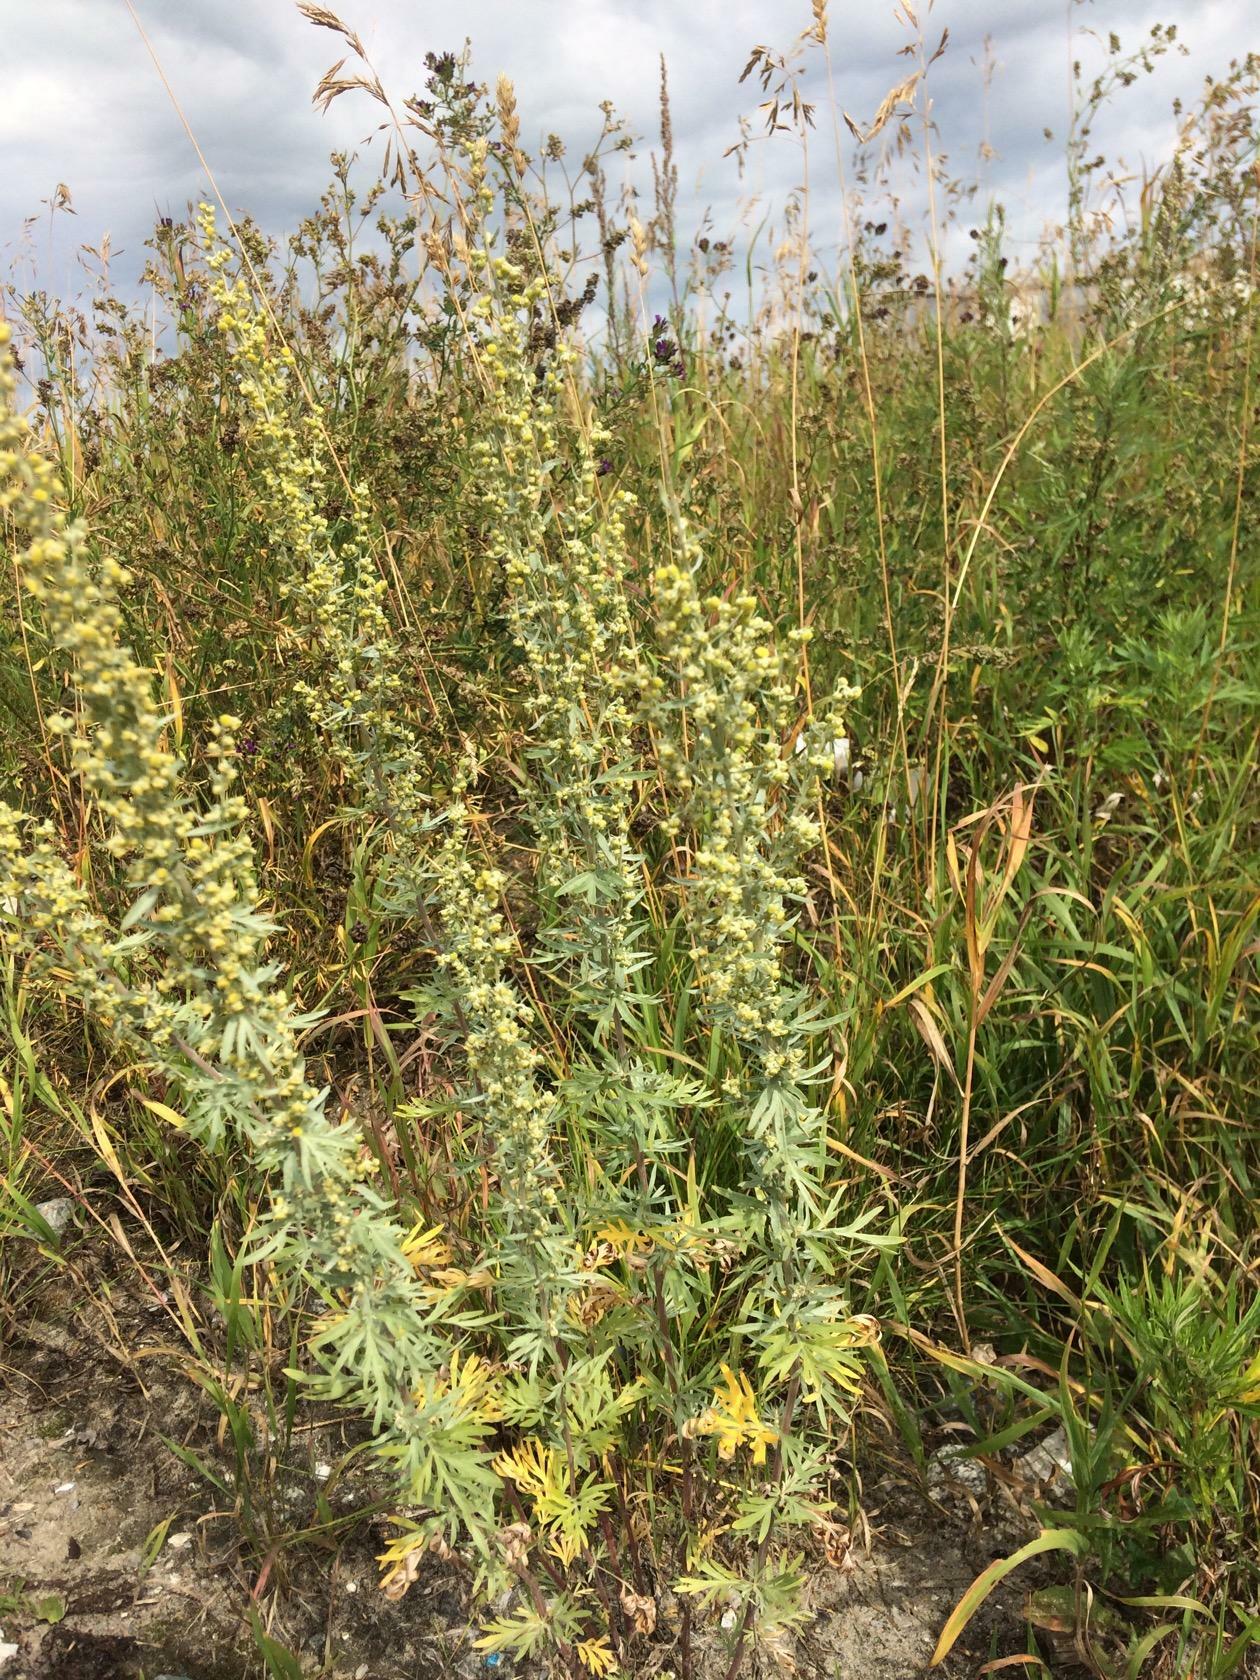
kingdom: Plantae
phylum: Tracheophyta
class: Magnoliopsida
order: Asterales
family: Asteraceae
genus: Artemisia
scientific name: Artemisia absinthium
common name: Wormwood
